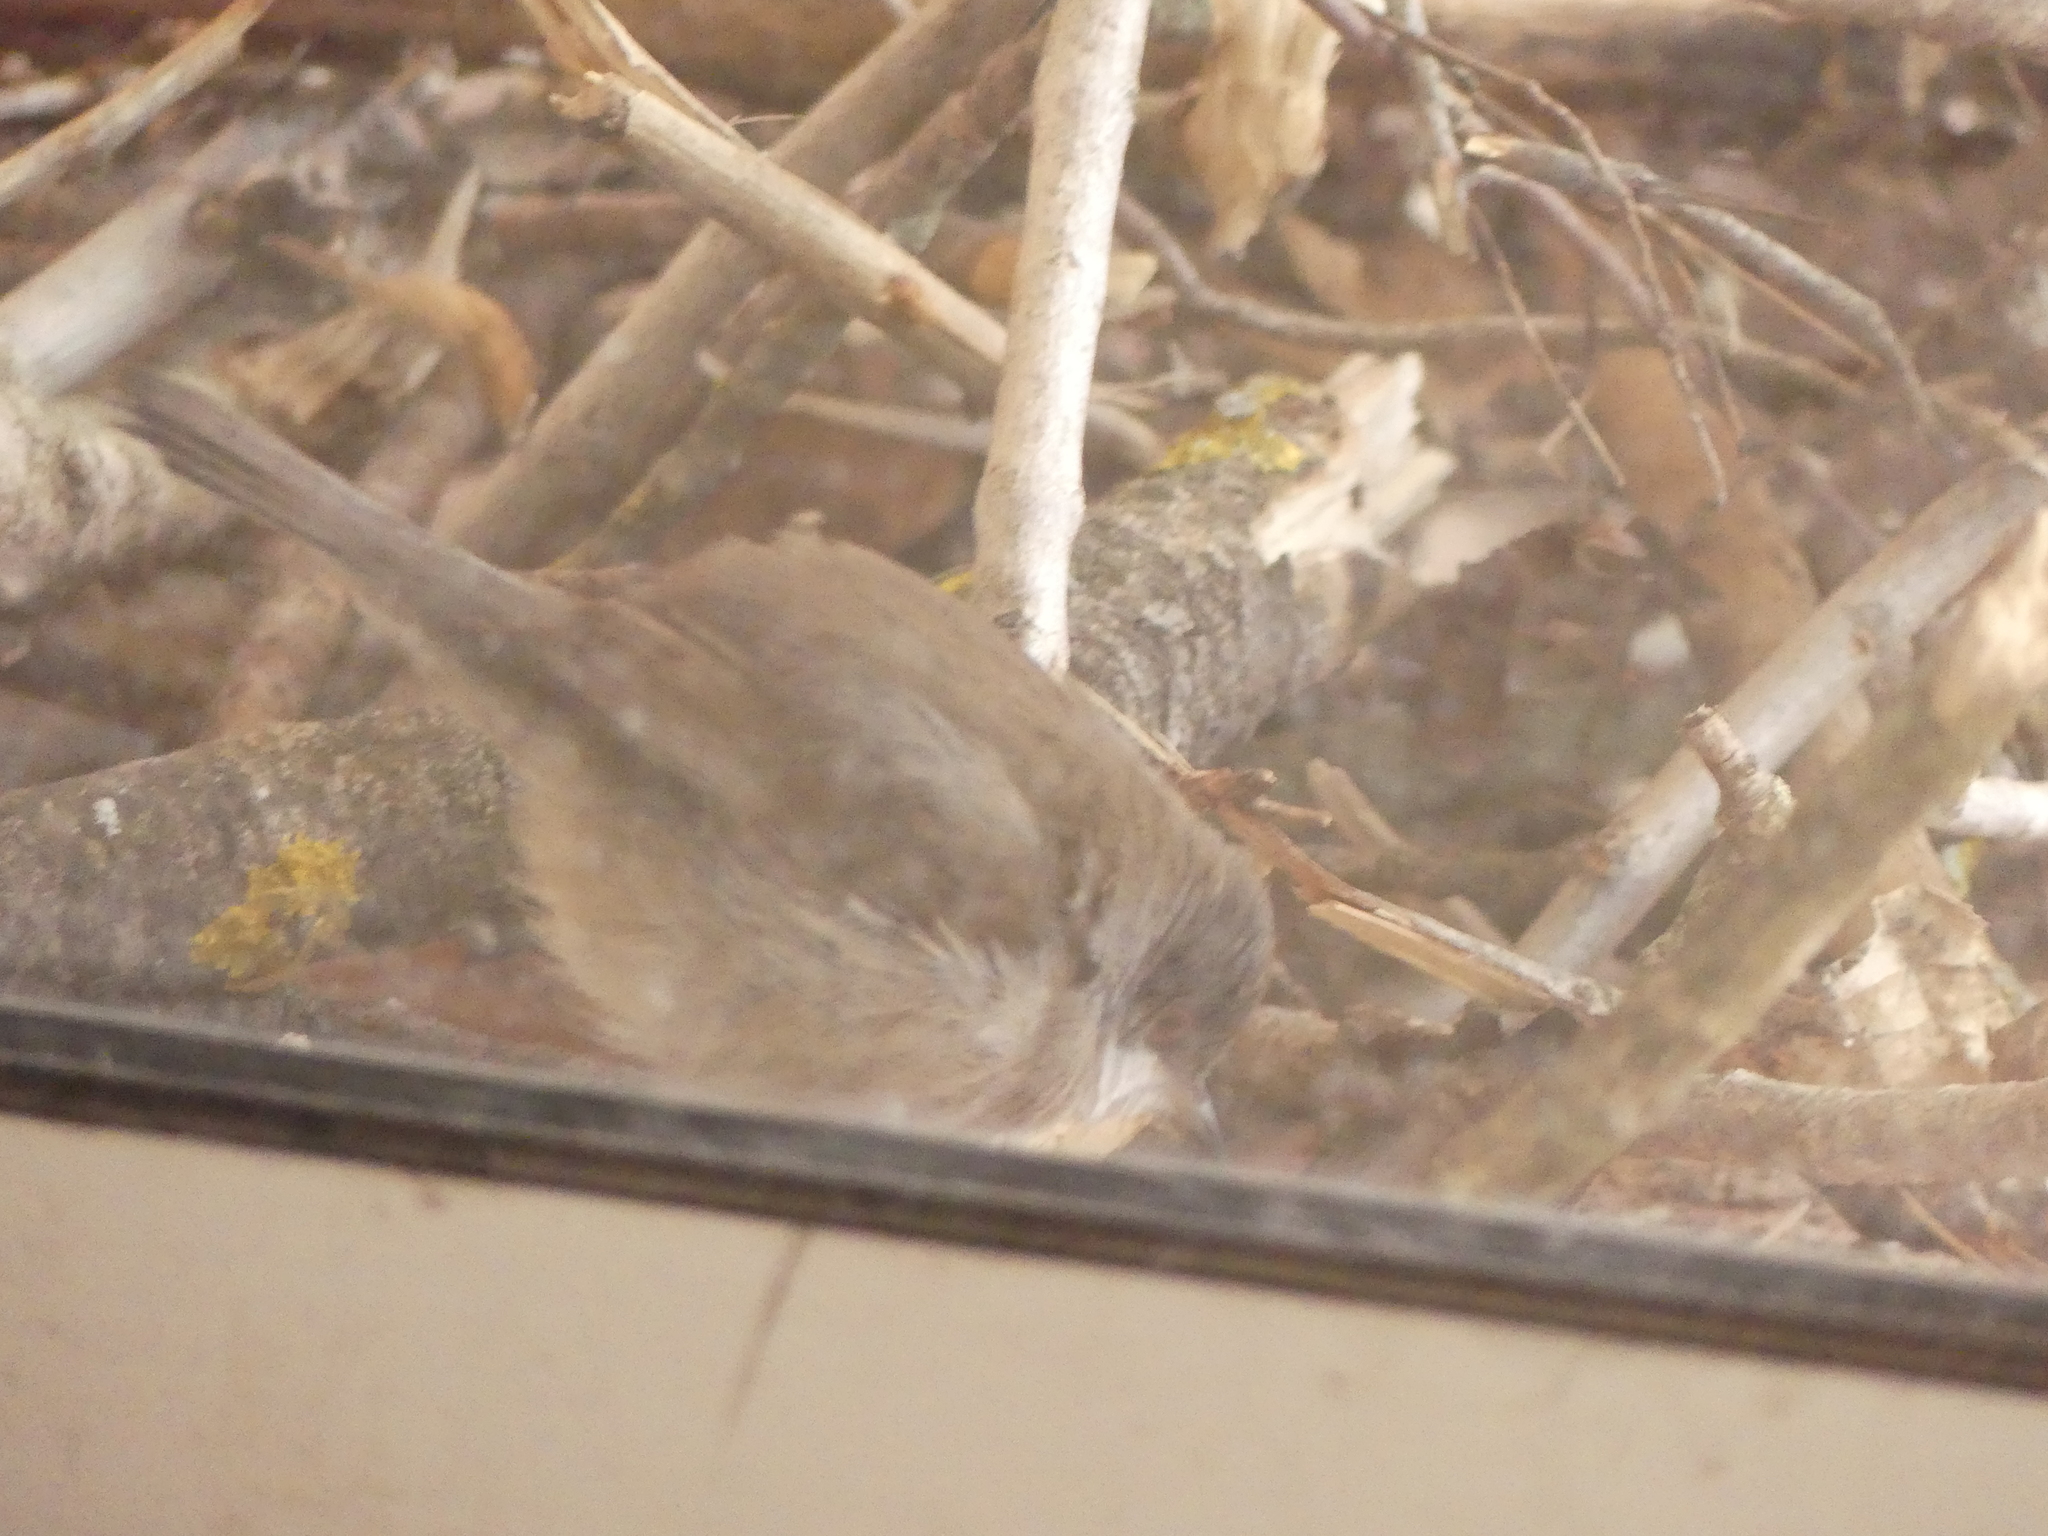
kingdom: Animalia
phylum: Chordata
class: Aves
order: Passeriformes
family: Sylviidae
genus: Curruca
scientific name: Curruca melanocephala
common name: Sardinian warbler
